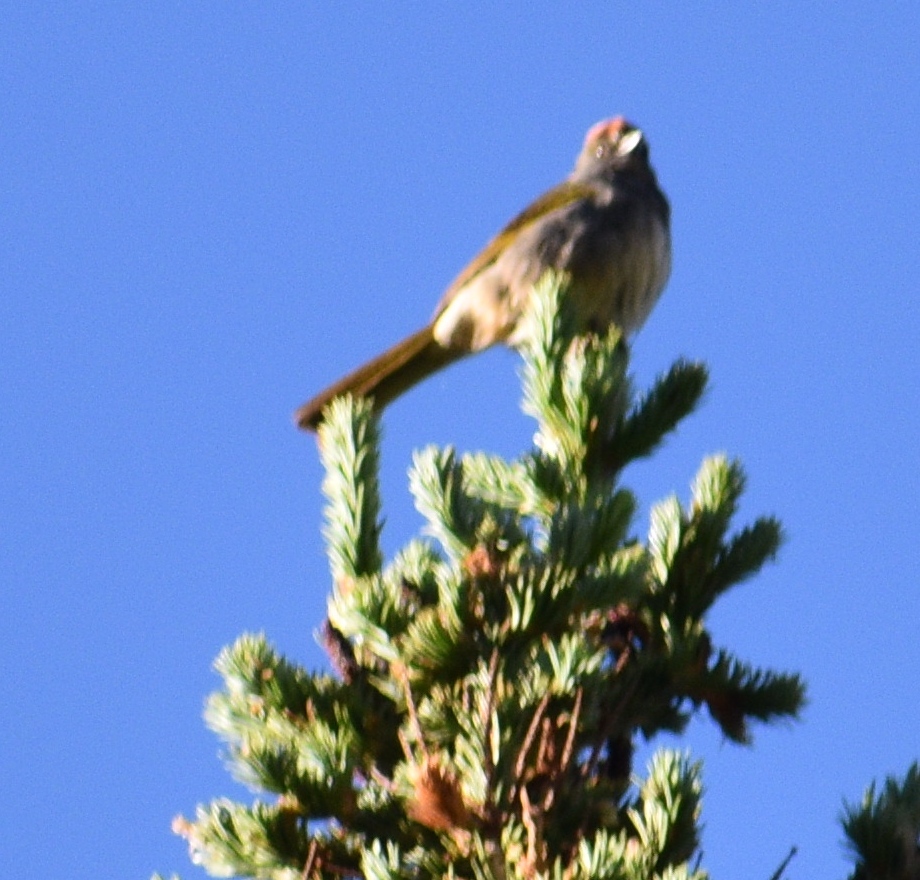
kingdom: Animalia
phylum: Chordata
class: Aves
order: Passeriformes
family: Passerellidae
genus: Pipilo
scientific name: Pipilo chlorurus
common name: Green-tailed towhee
